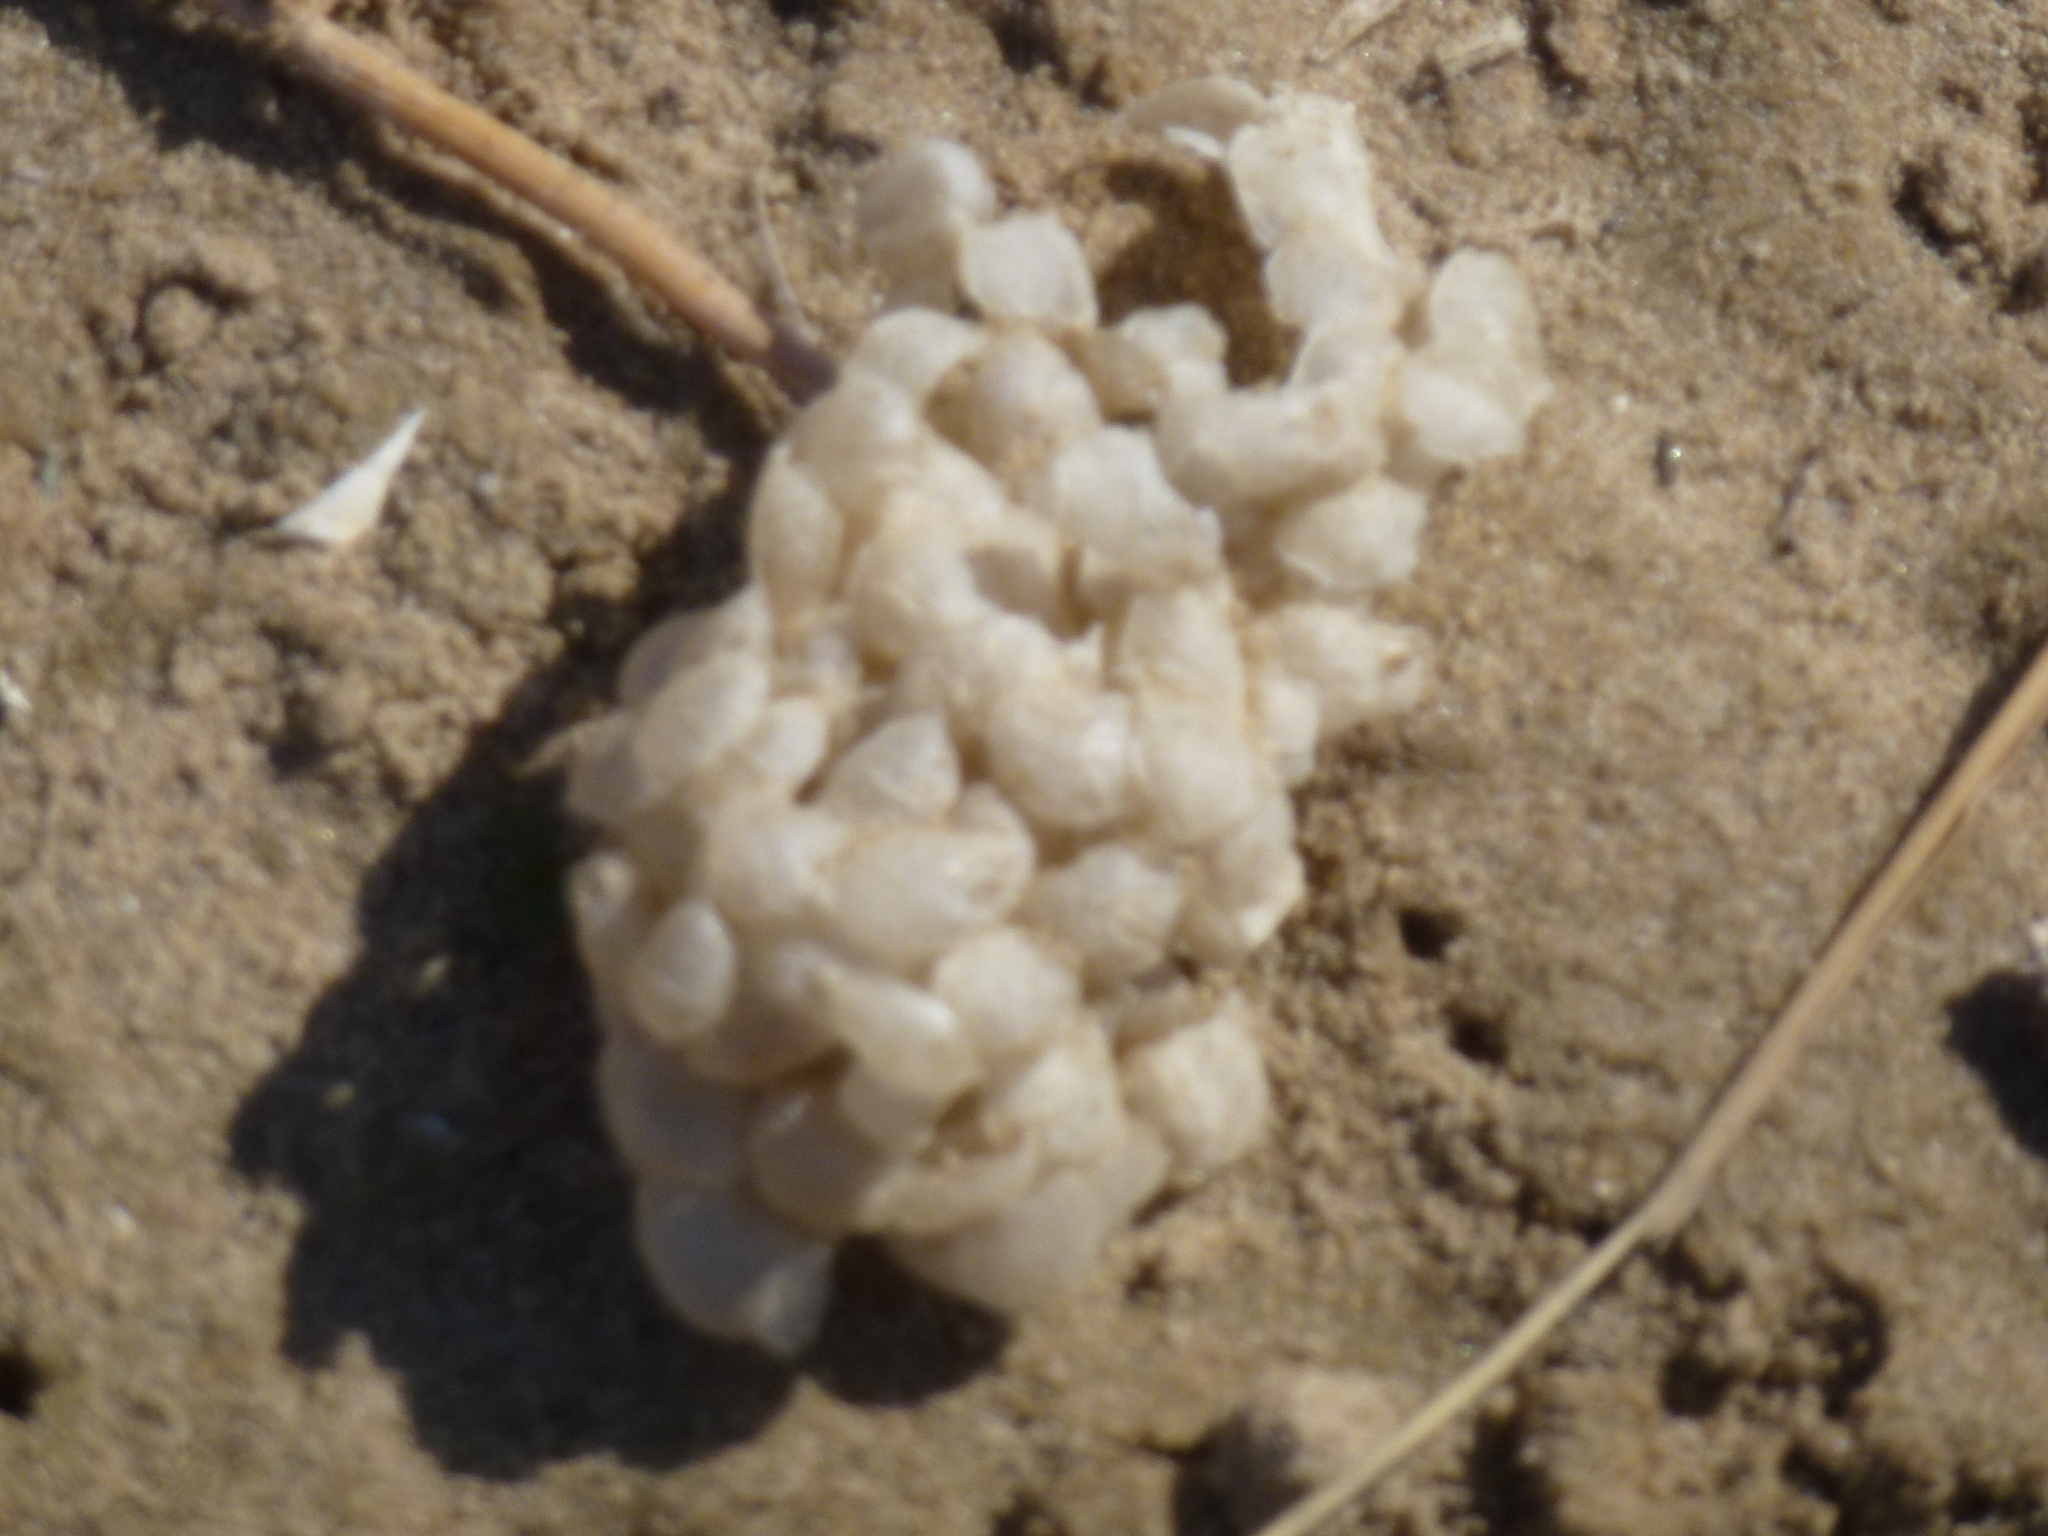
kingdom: Animalia
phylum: Mollusca
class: Gastropoda
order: Neogastropoda
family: Buccinidae
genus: Buccinum
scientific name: Buccinum undatum
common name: Common whelk
